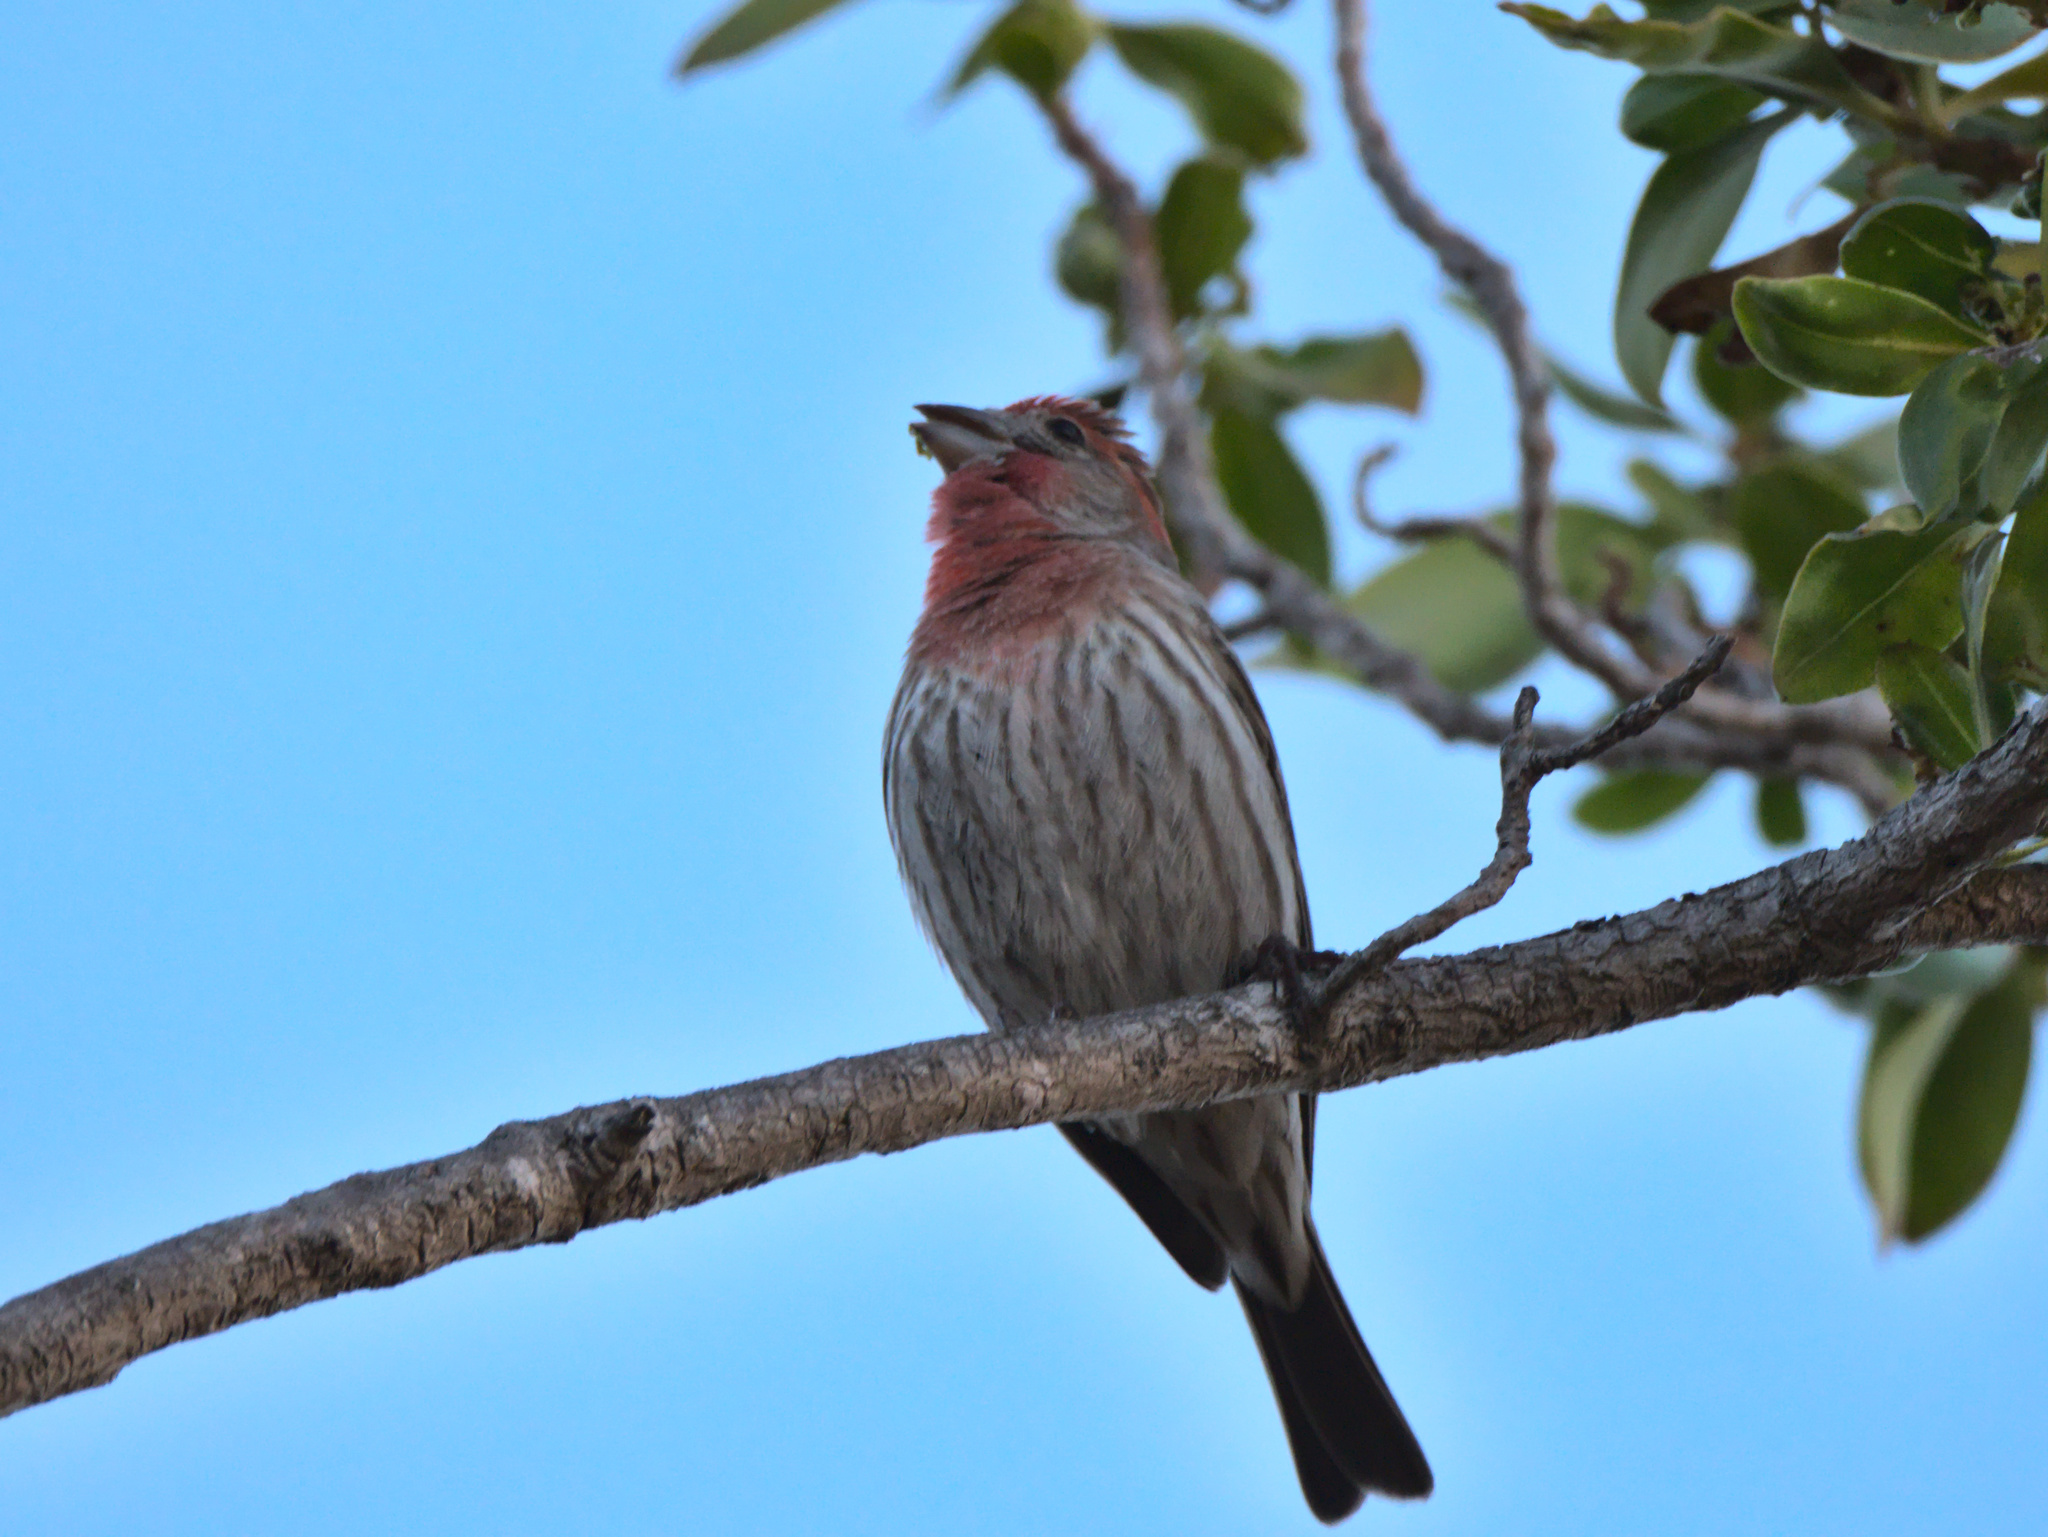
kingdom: Animalia
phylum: Chordata
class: Aves
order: Passeriformes
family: Fringillidae
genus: Haemorhous
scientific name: Haemorhous mexicanus
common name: House finch
